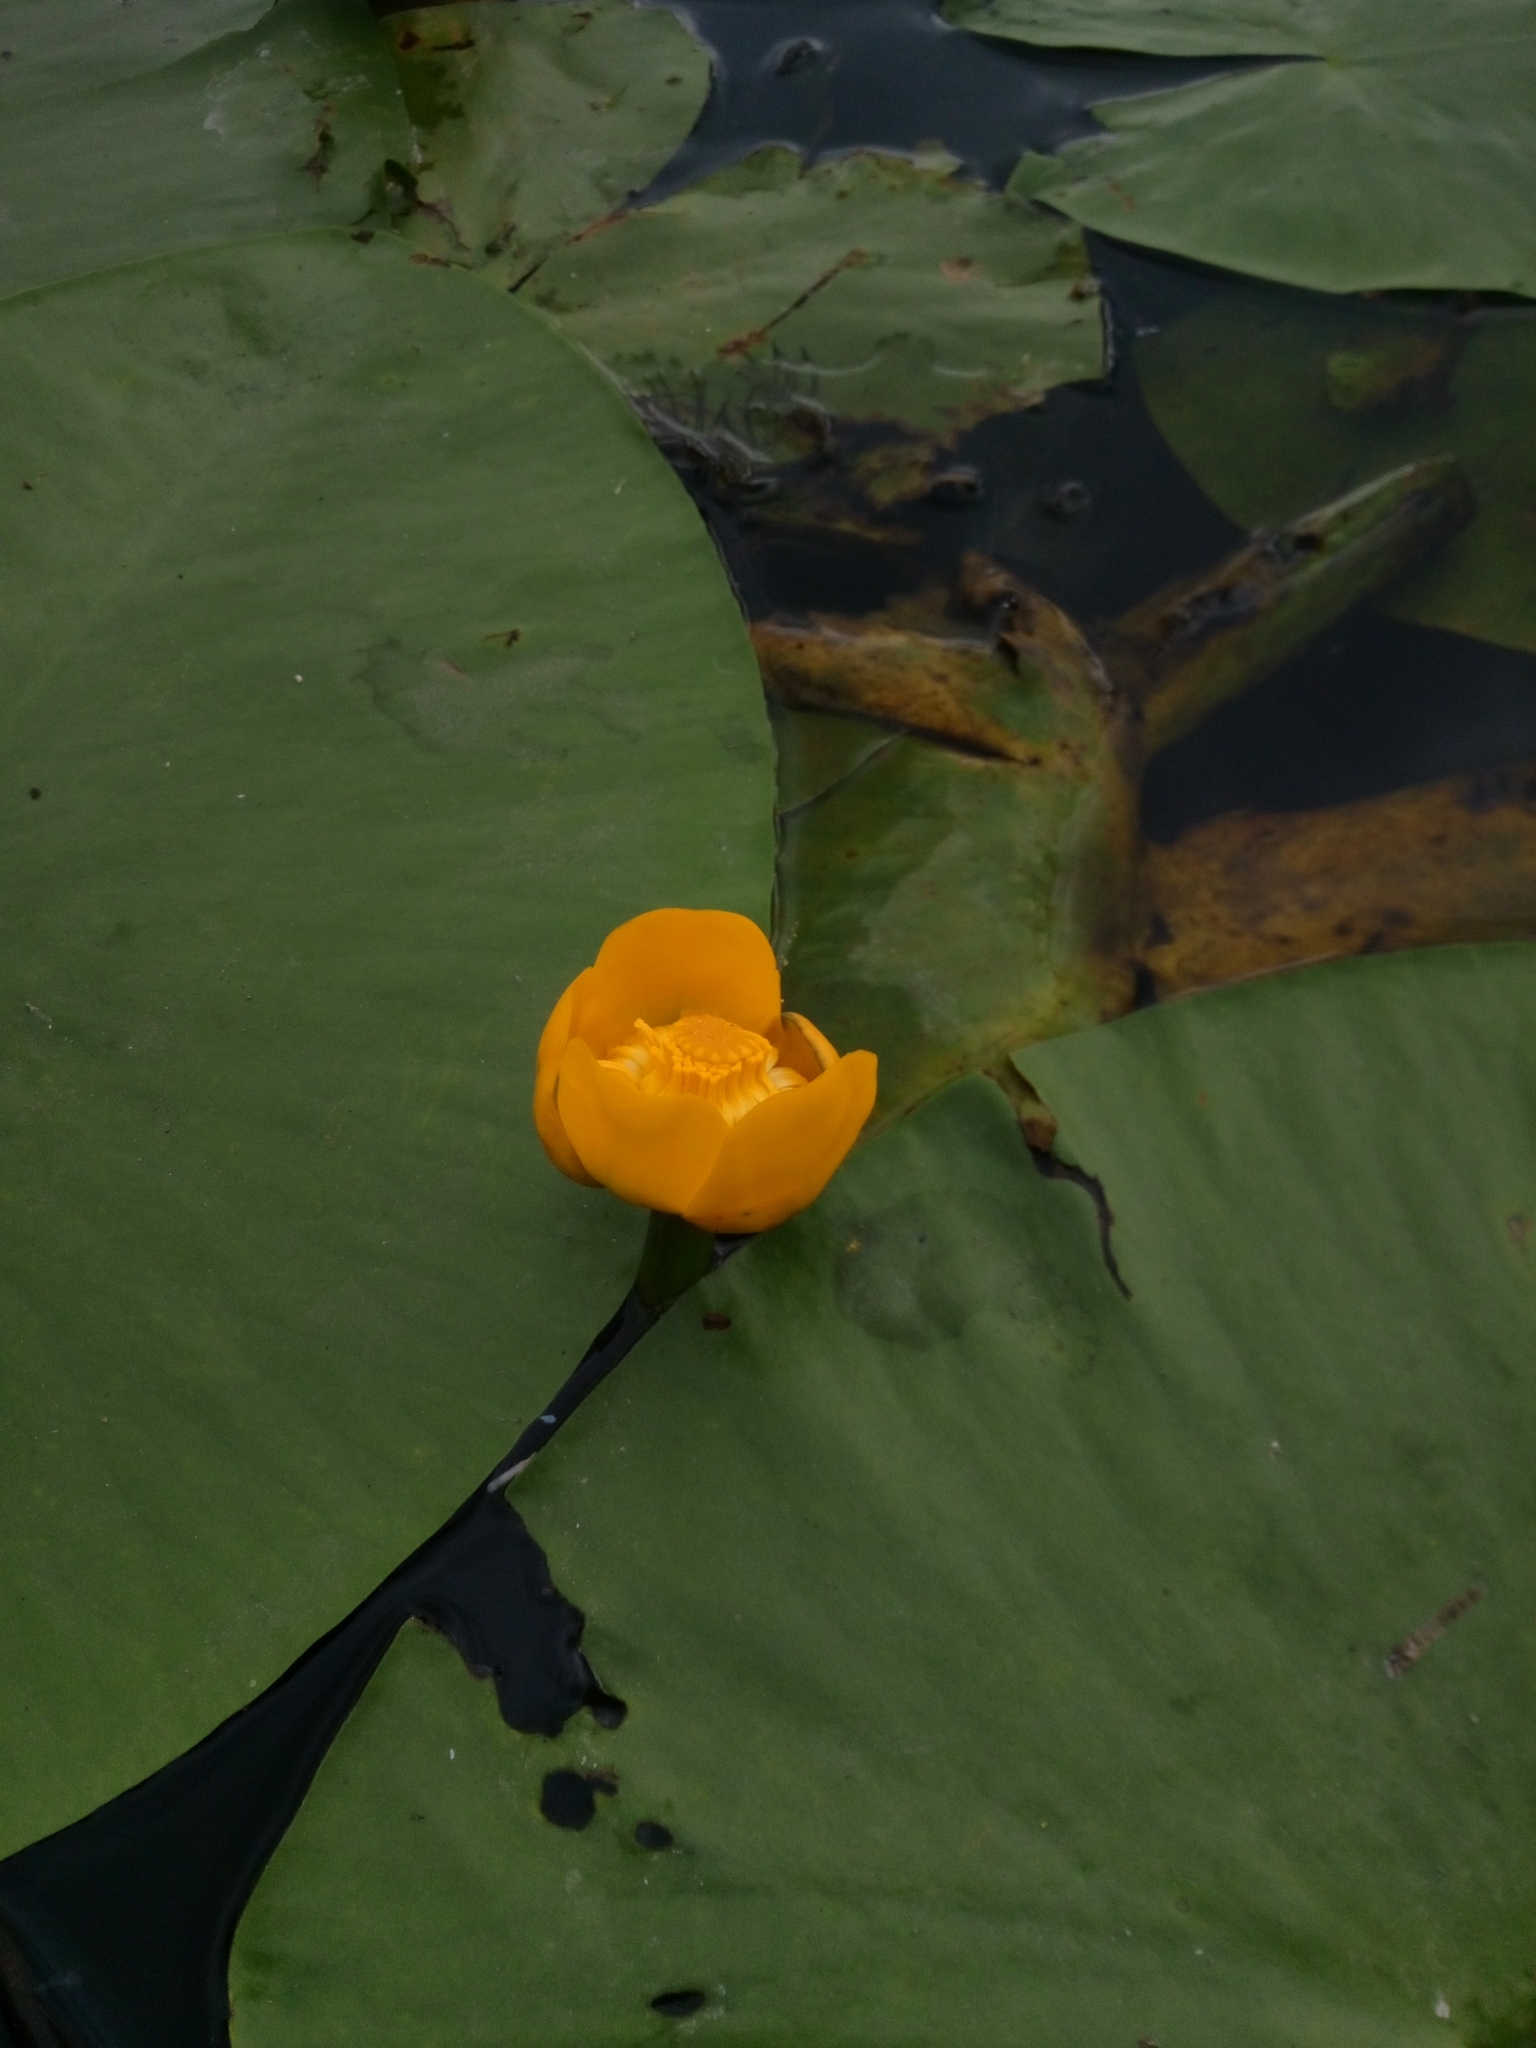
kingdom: Plantae
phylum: Tracheophyta
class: Magnoliopsida
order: Nymphaeales
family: Nymphaeaceae
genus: Nuphar
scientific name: Nuphar lutea
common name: Yellow water-lily
